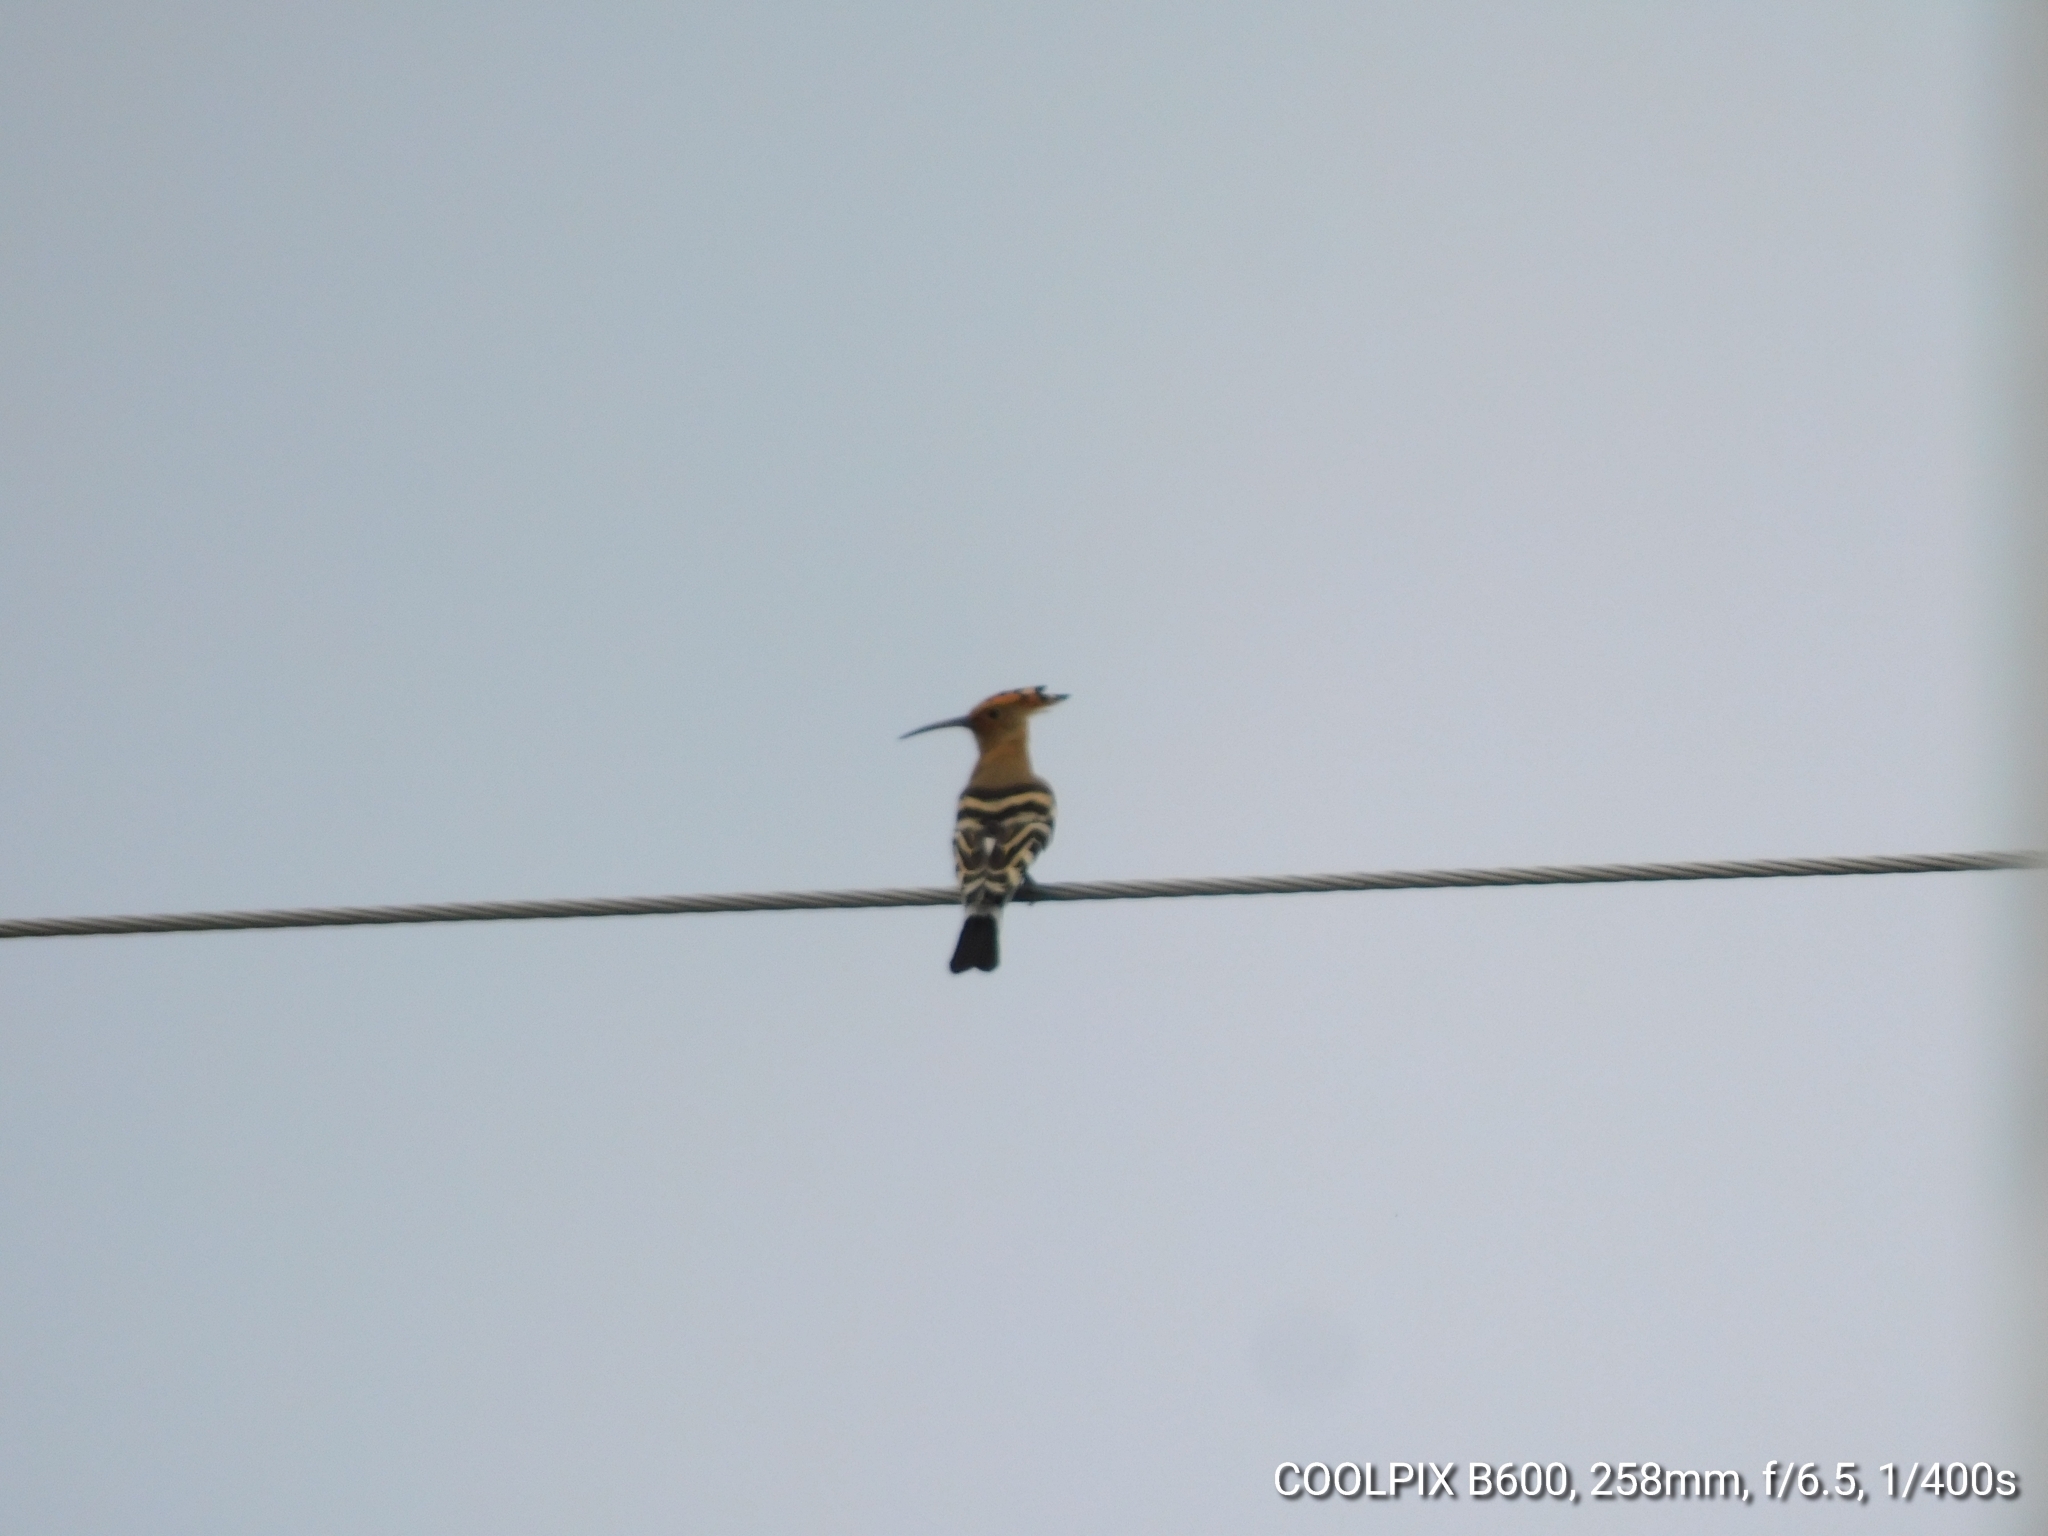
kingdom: Animalia
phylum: Chordata
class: Aves
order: Bucerotiformes
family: Upupidae
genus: Upupa
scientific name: Upupa epops
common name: Eurasian hoopoe
